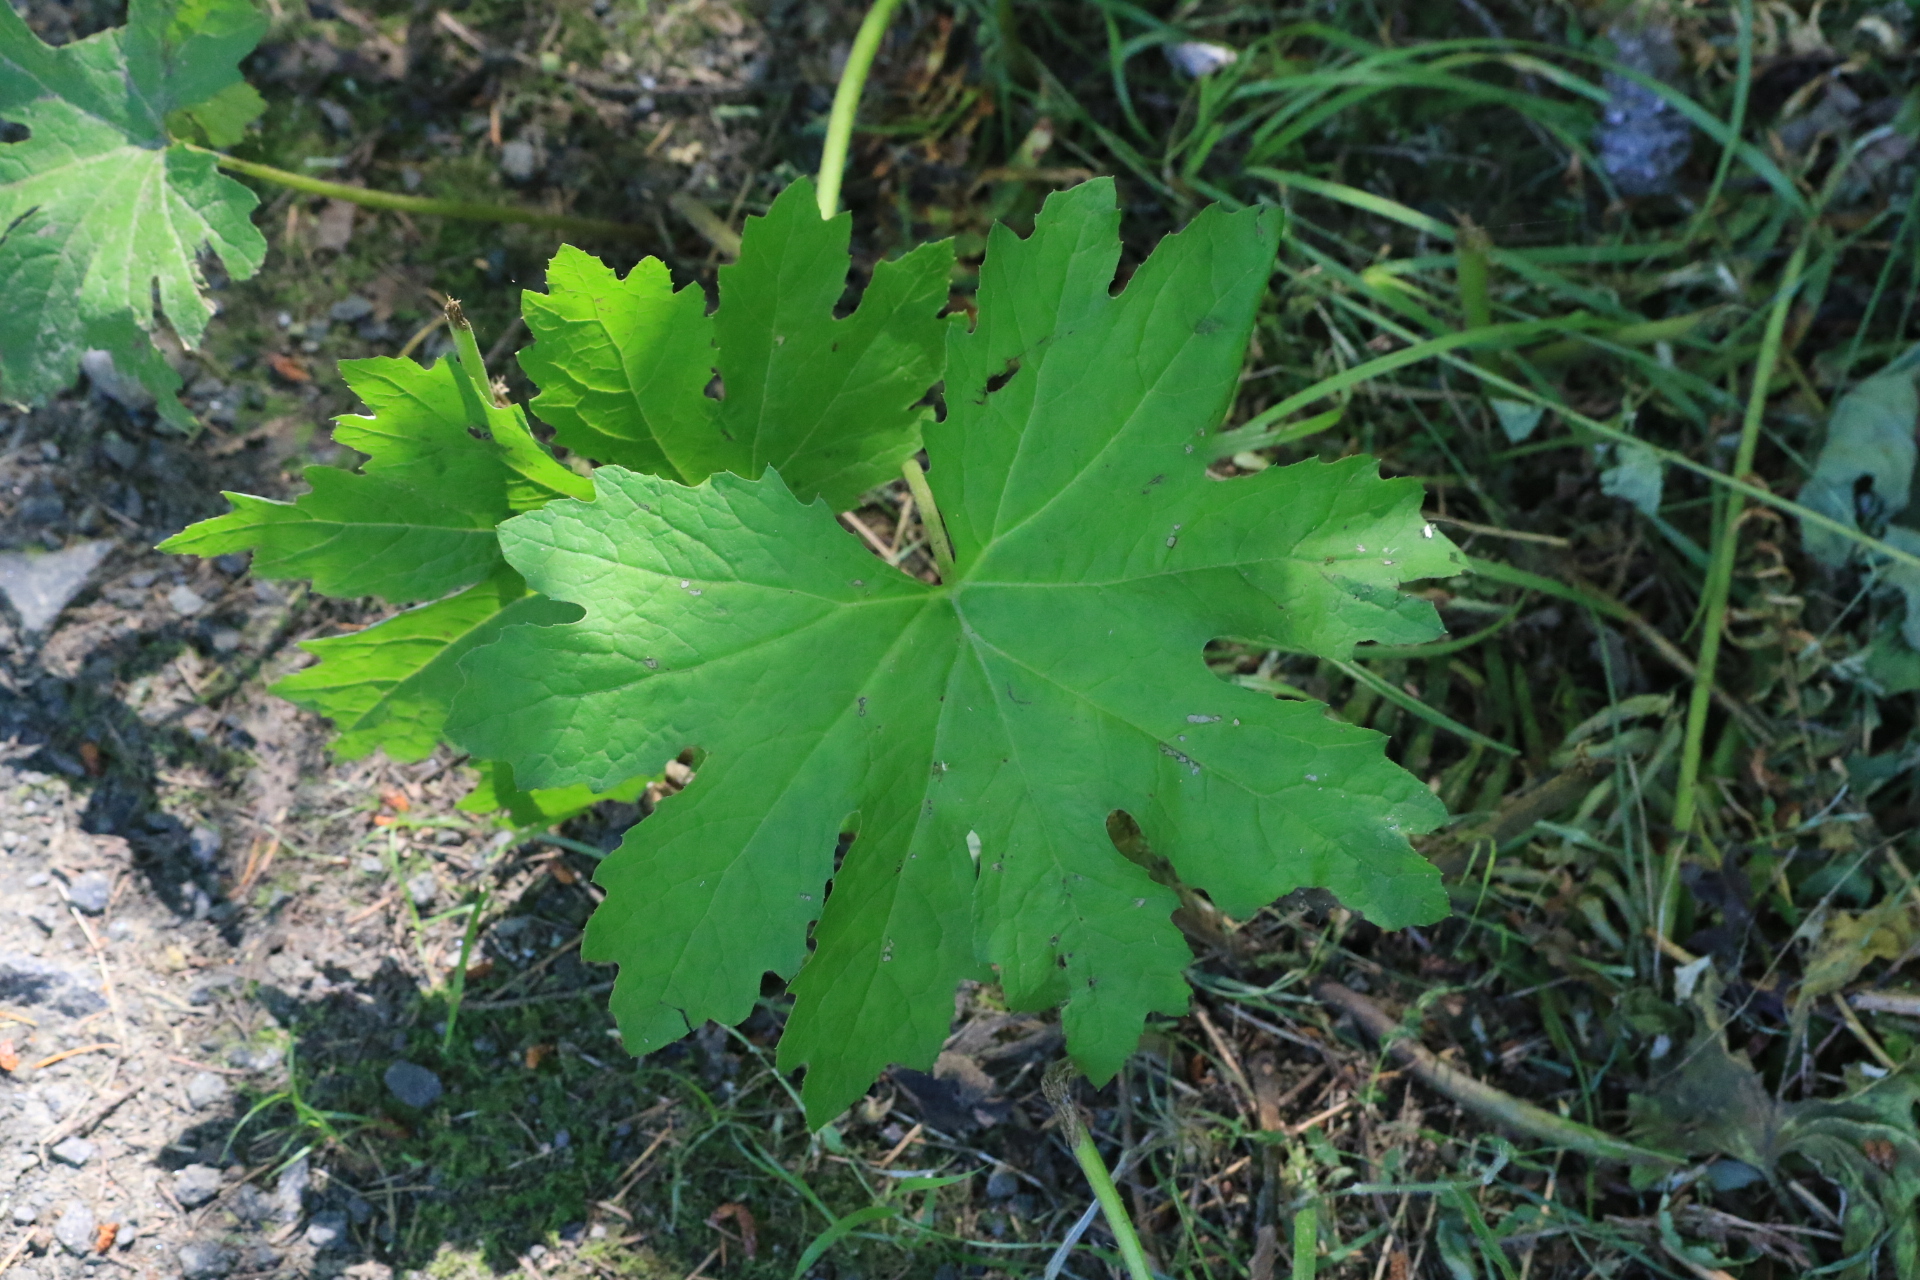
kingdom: Plantae
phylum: Tracheophyta
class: Magnoliopsida
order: Asterales
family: Asteraceae
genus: Petasites
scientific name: Petasites frigidus
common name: Arctic butterbur
